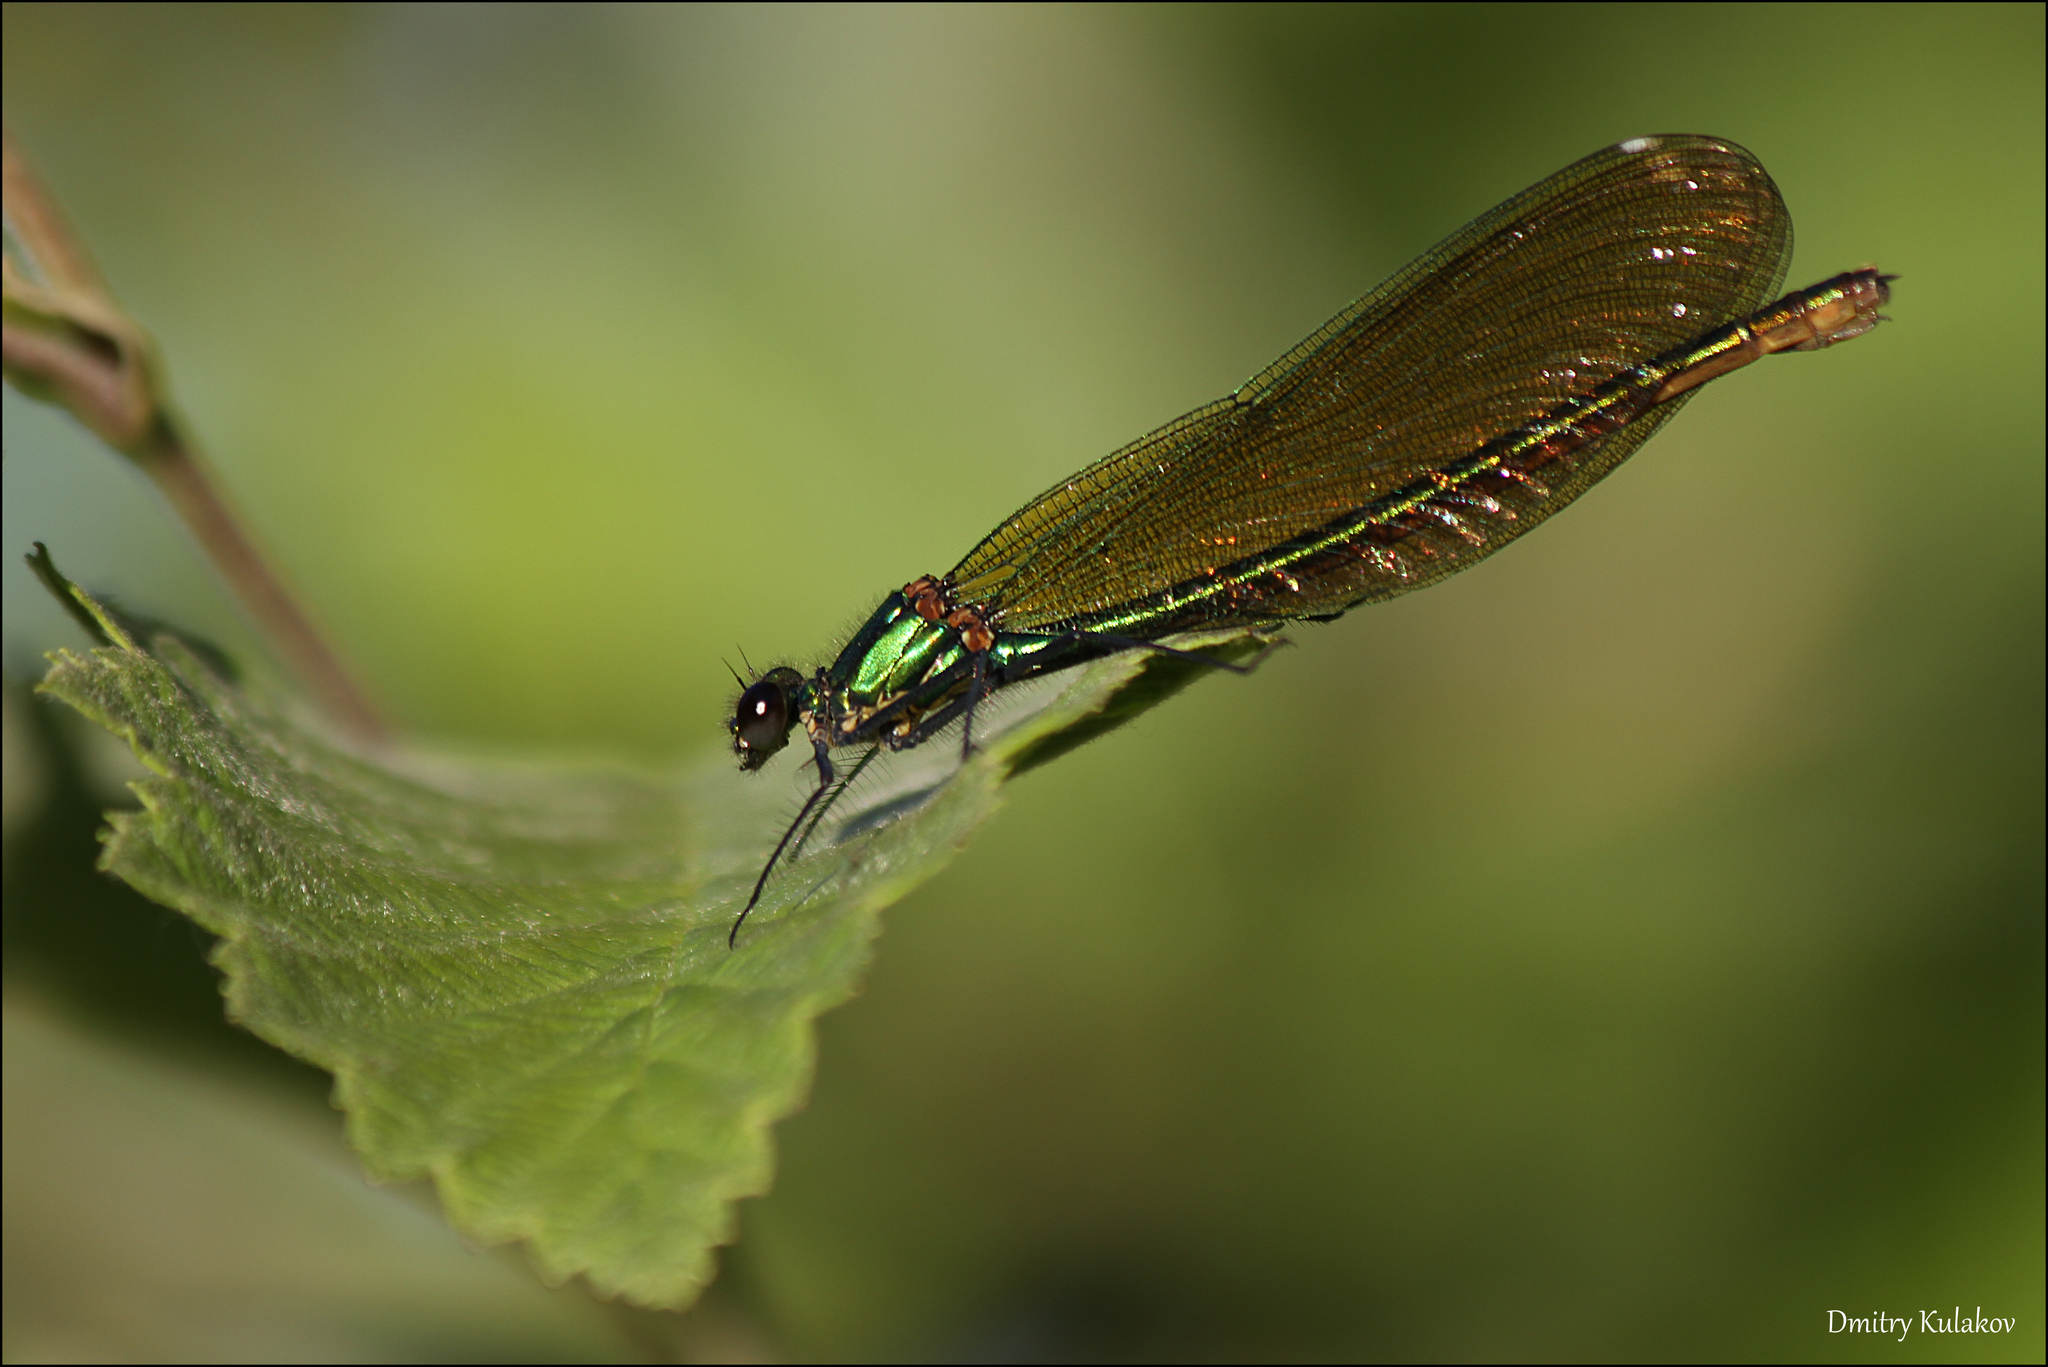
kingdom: Animalia
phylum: Arthropoda
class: Insecta
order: Odonata
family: Calopterygidae
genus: Calopteryx
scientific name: Calopteryx splendens
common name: Banded demoiselle
